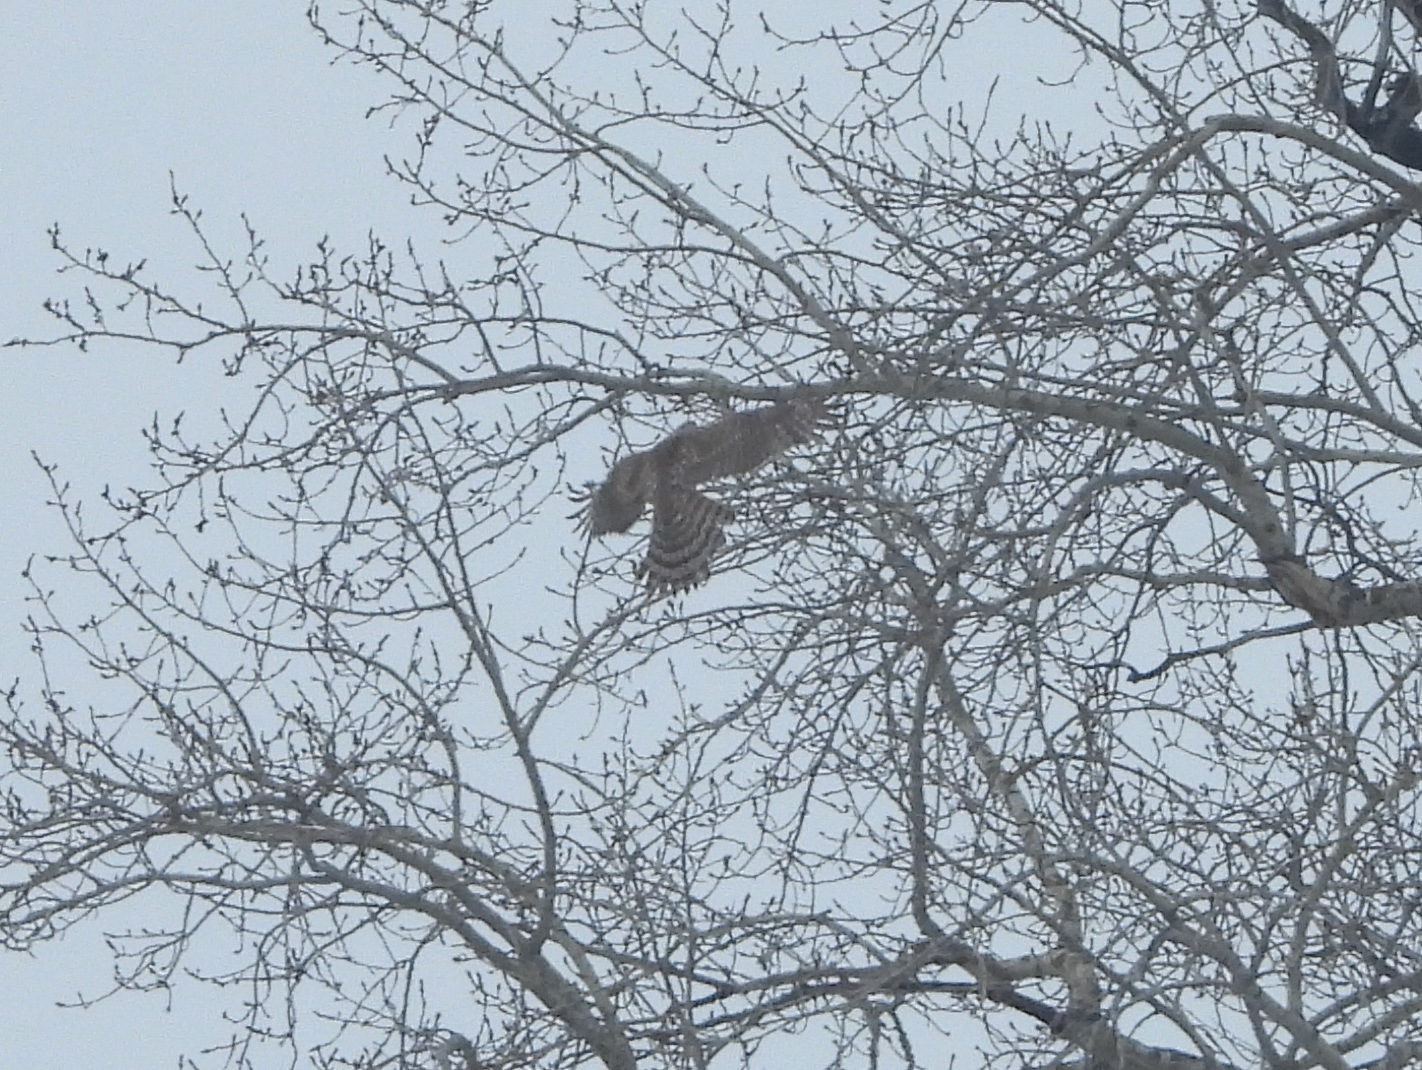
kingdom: Animalia
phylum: Chordata
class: Aves
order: Accipitriformes
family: Accipitridae
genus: Accipiter
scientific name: Accipiter gentilis
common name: Northern goshawk
